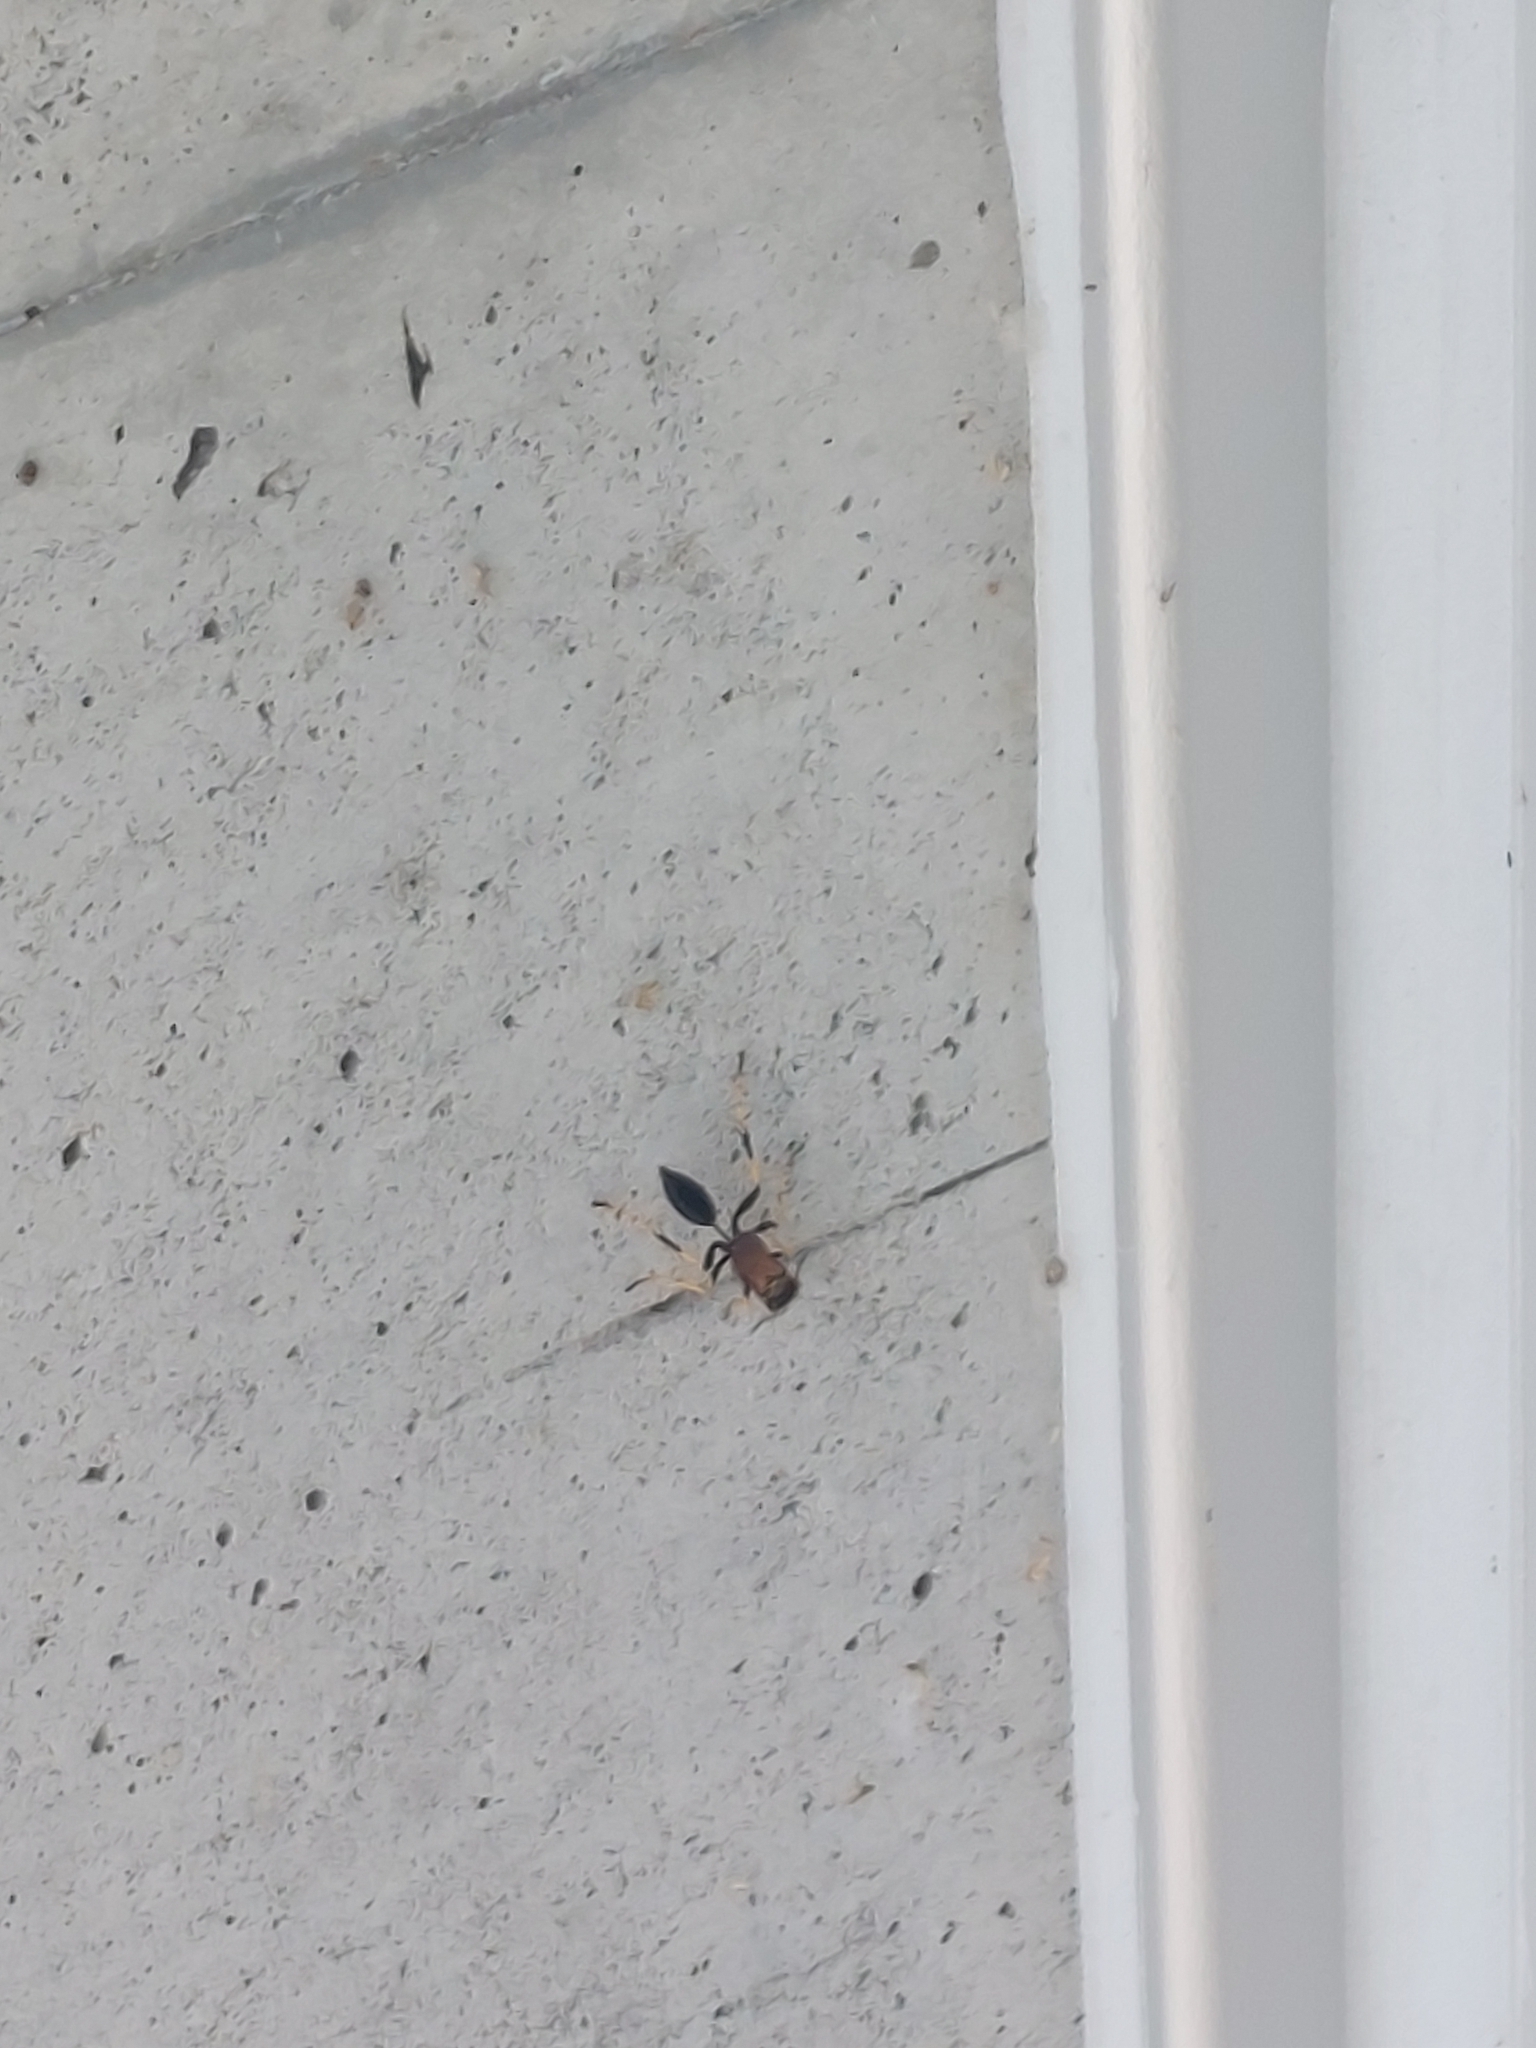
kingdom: Animalia
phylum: Arthropoda
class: Insecta
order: Hymenoptera
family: Sphecidae
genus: Sceliphron
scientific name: Sceliphron caementarium
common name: Mud dauber
